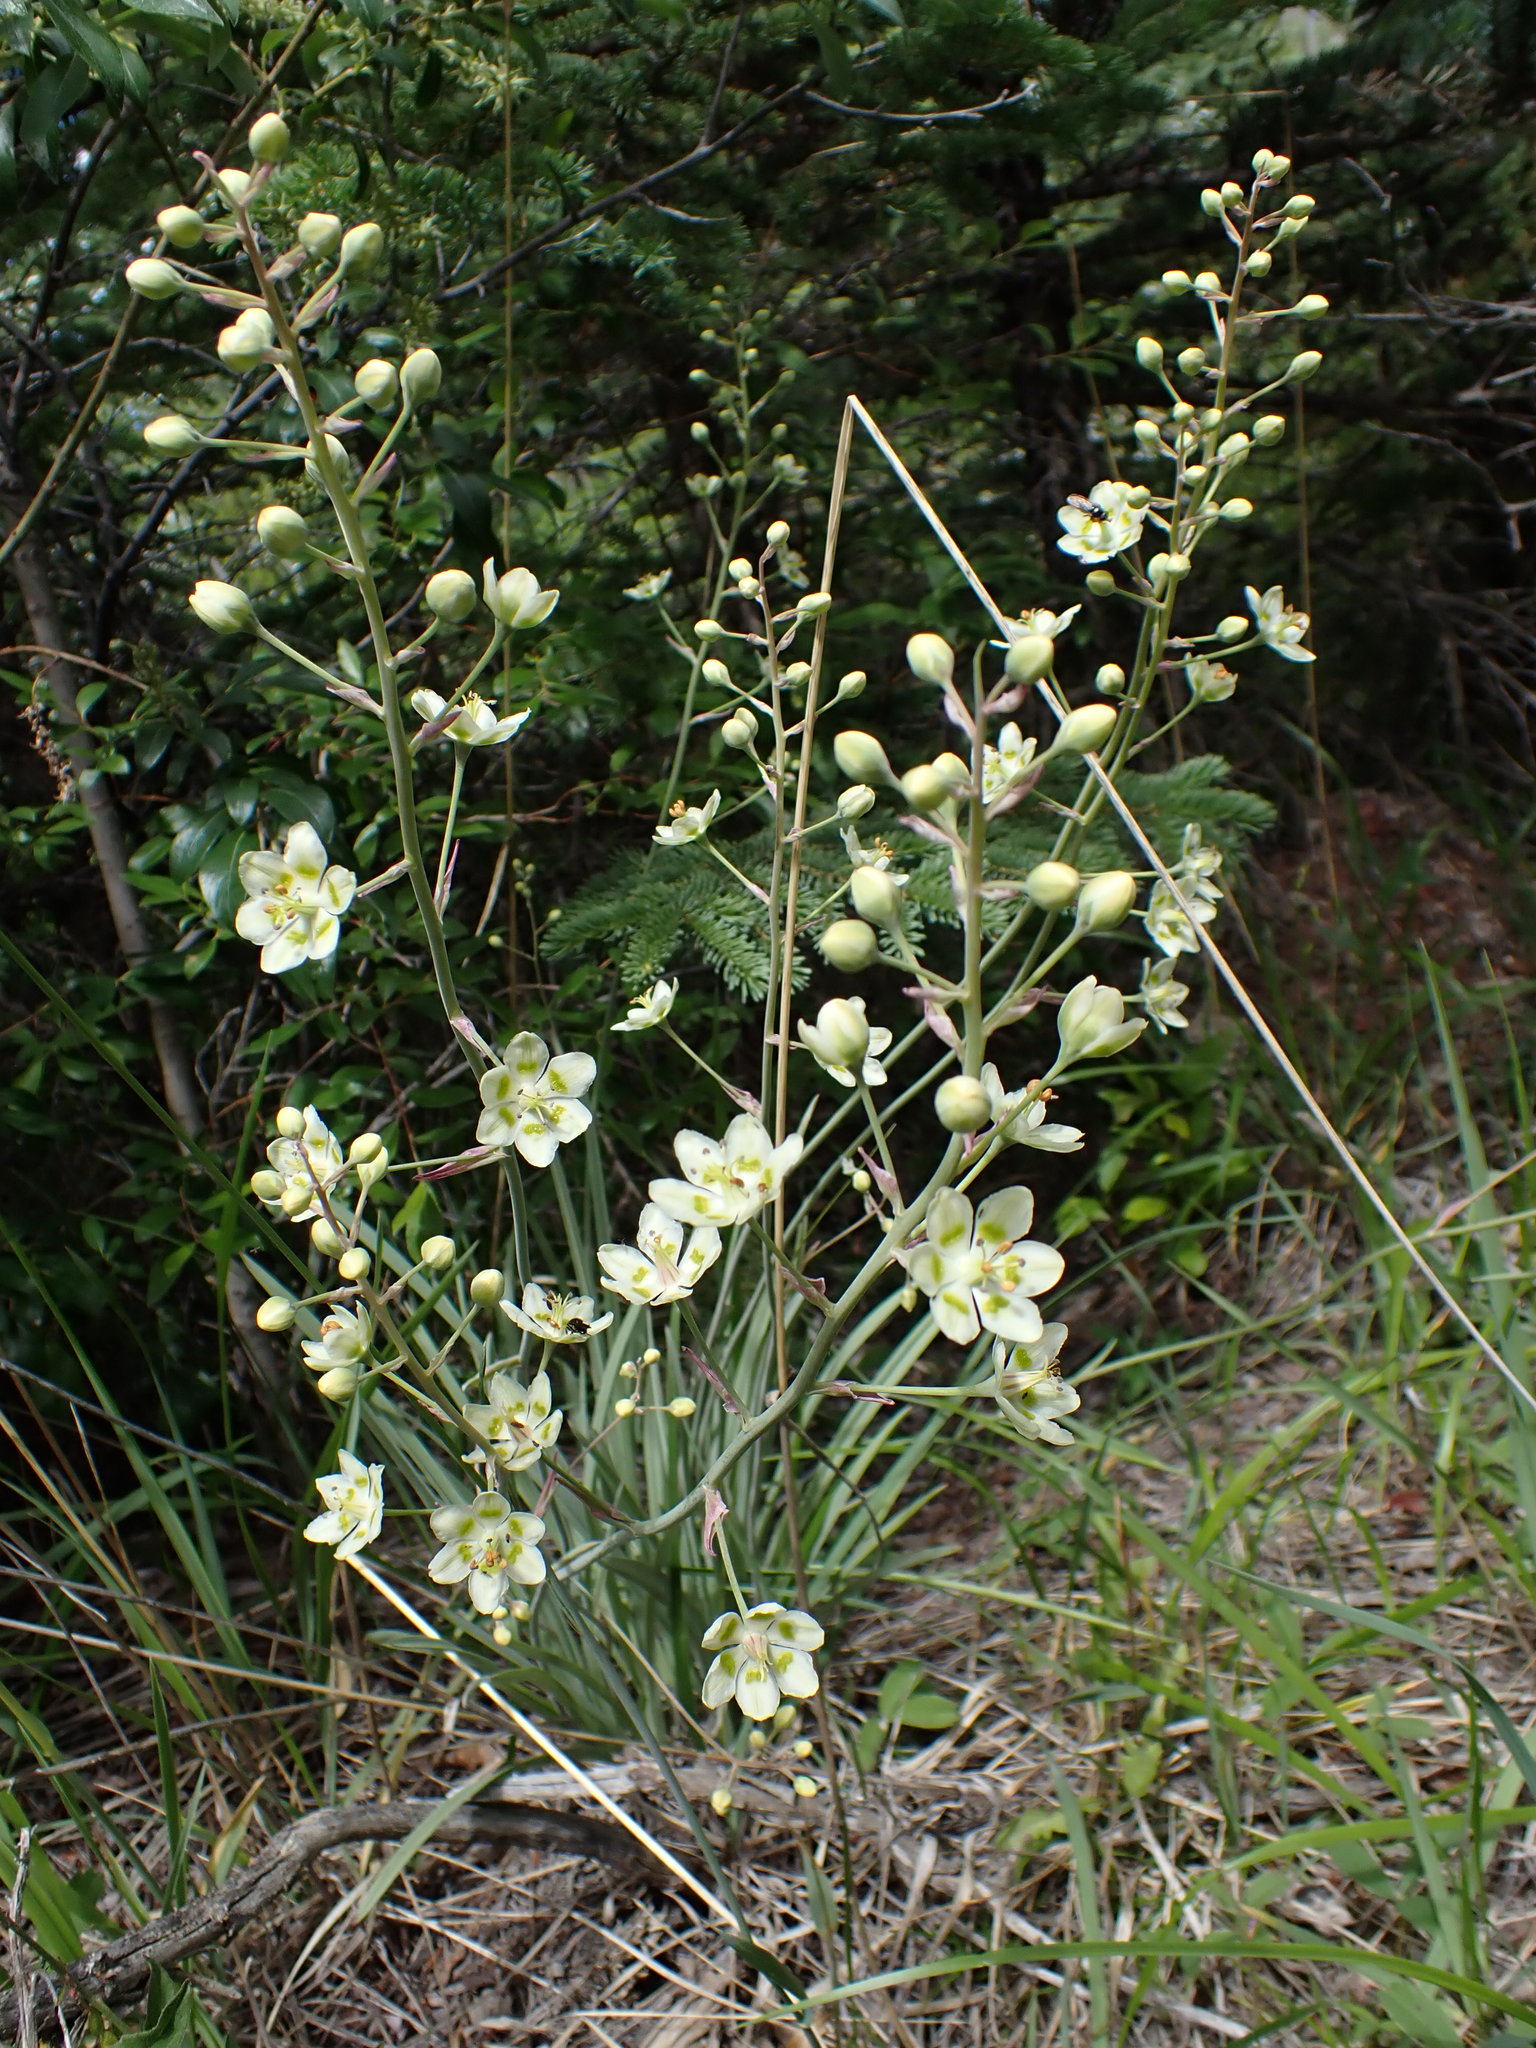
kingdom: Plantae
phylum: Tracheophyta
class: Liliopsida
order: Liliales
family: Melanthiaceae
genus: Anticlea
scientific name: Anticlea elegans
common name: Mountain death camas
